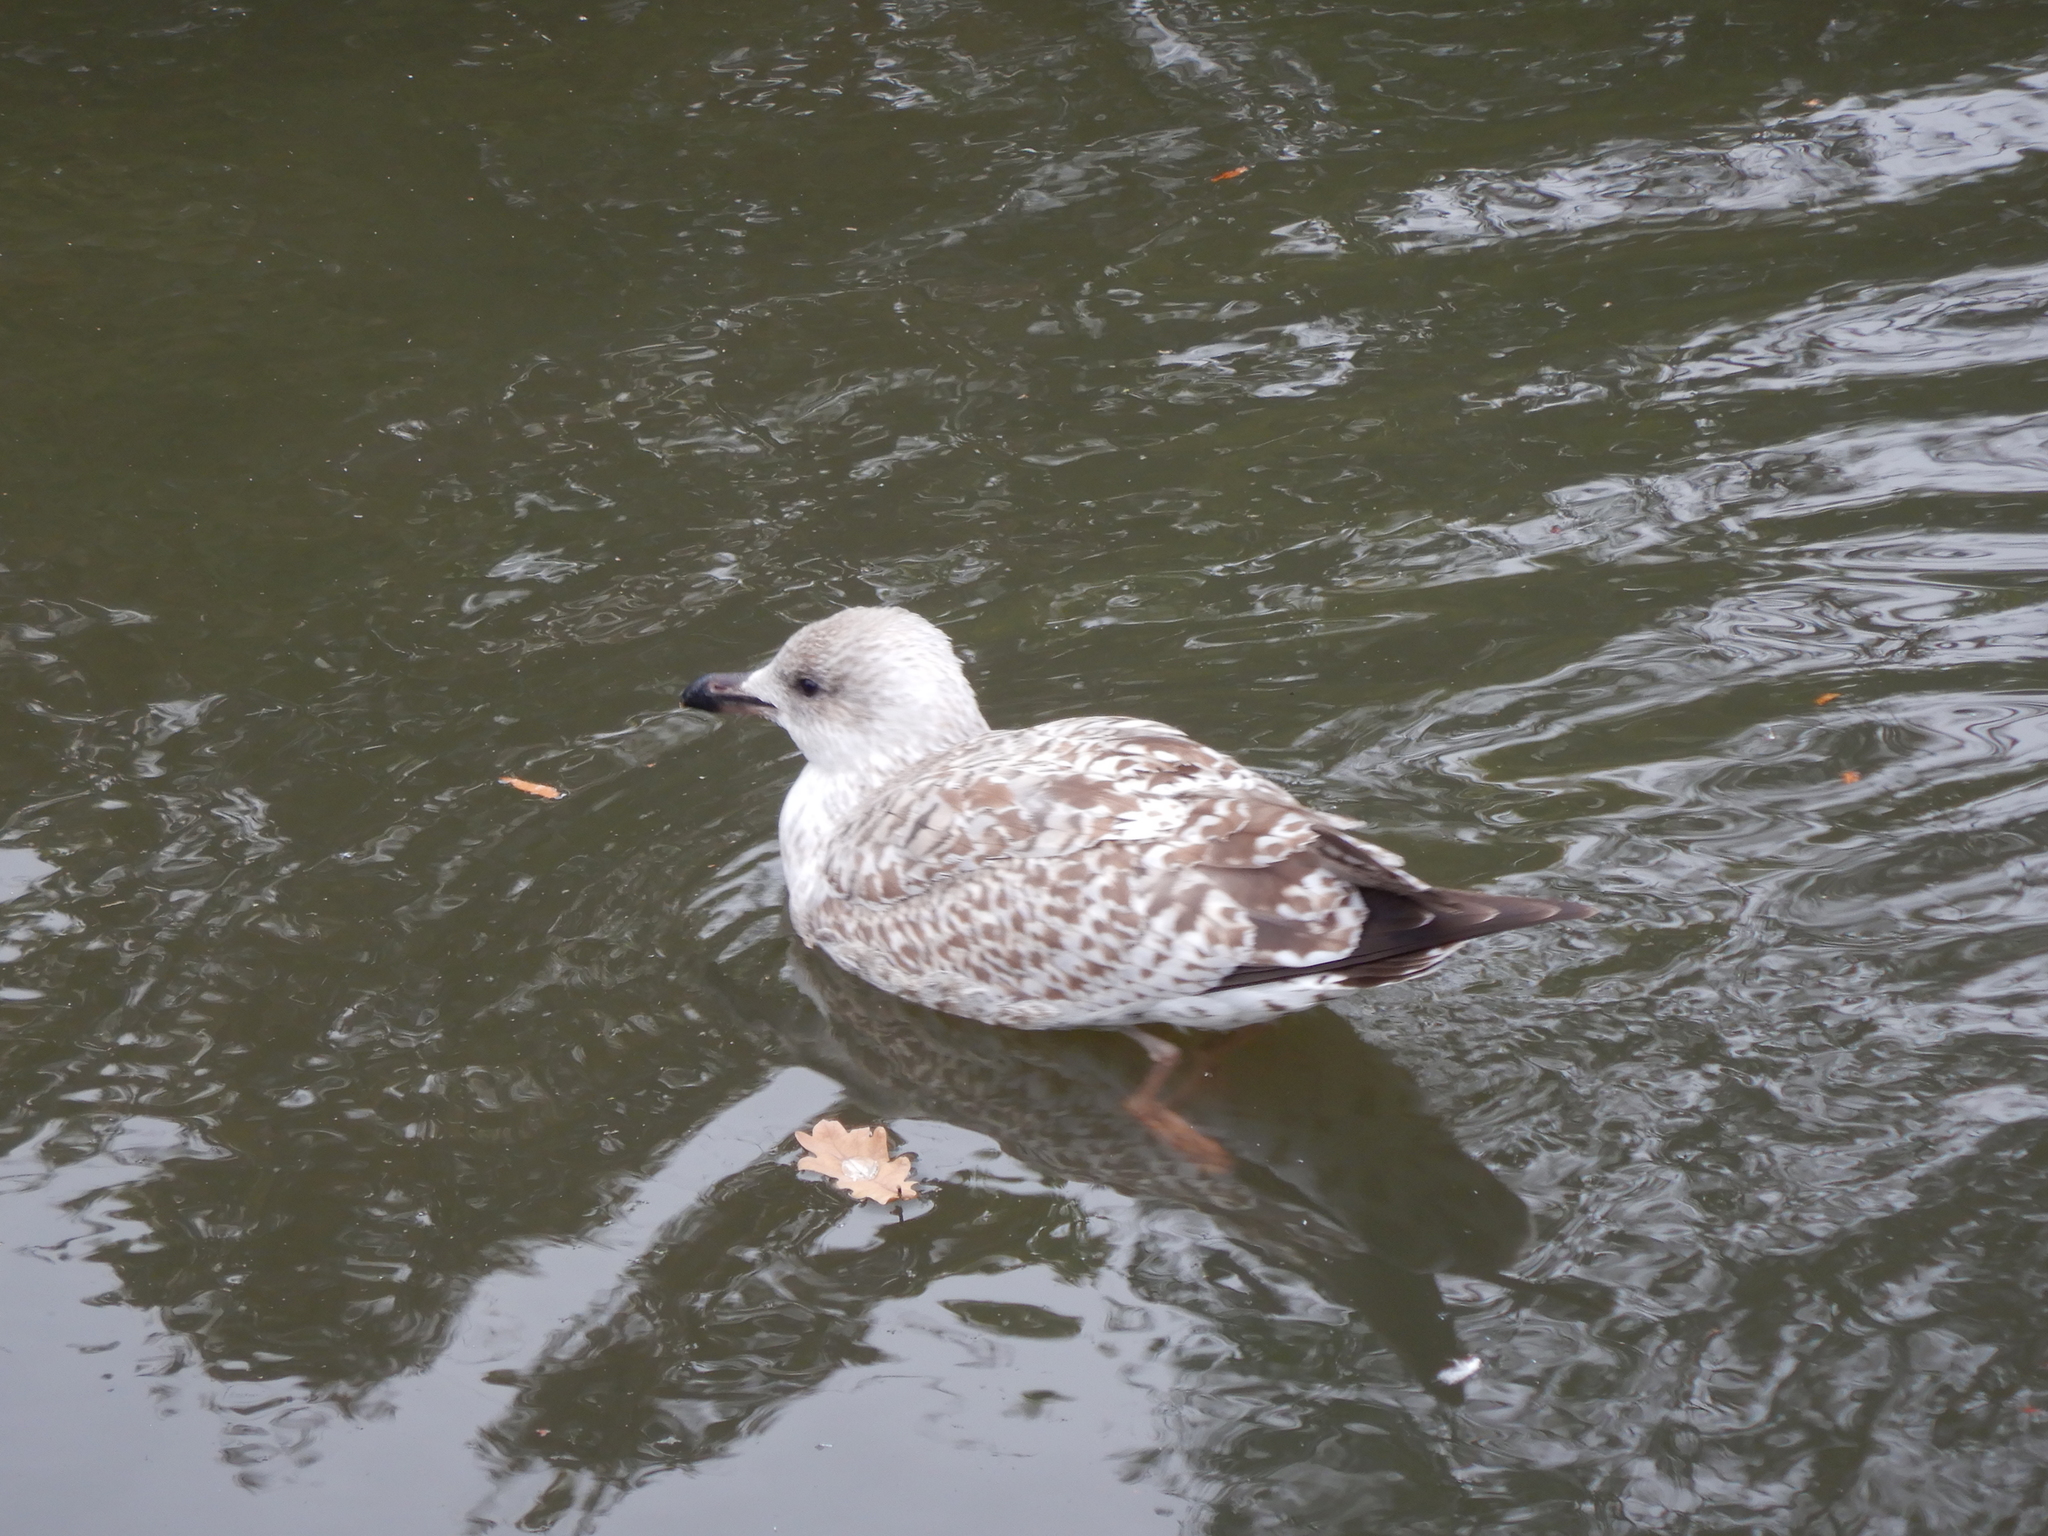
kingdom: Animalia
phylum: Chordata
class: Aves
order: Charadriiformes
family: Laridae
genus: Larus
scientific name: Larus argentatus
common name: Herring gull
